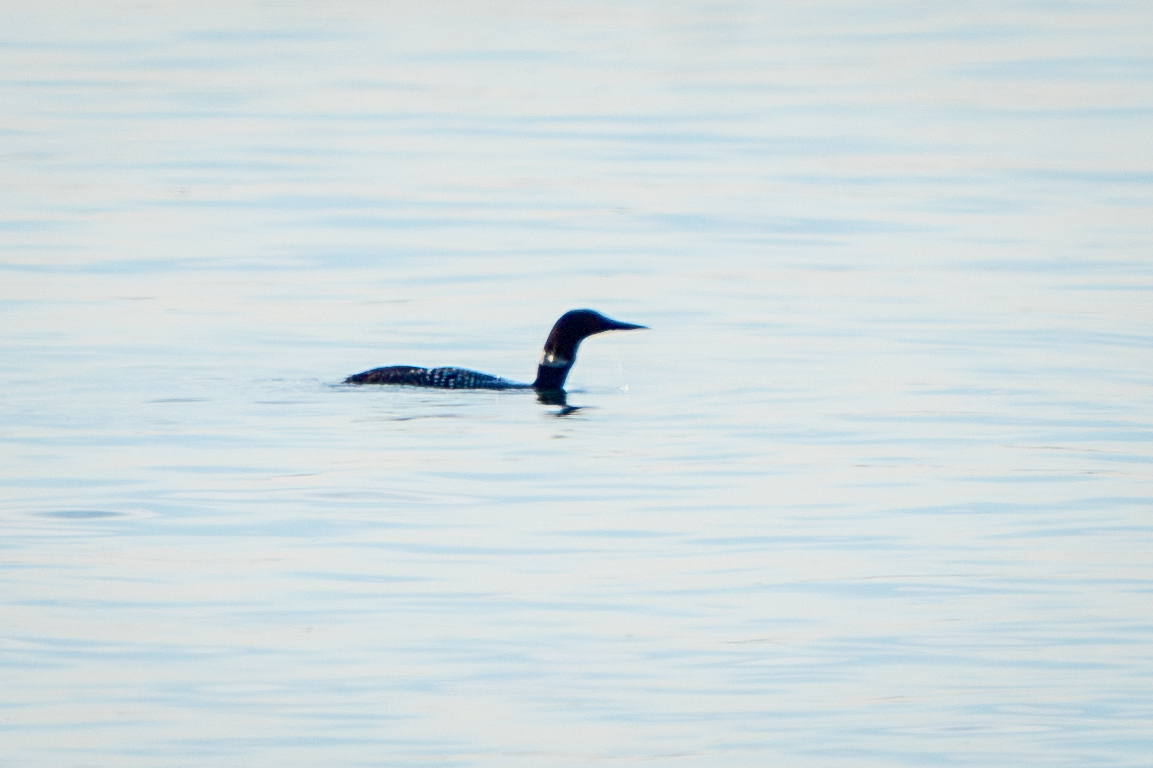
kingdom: Animalia
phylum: Chordata
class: Aves
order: Gaviiformes
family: Gaviidae
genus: Gavia
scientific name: Gavia immer
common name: Common loon
